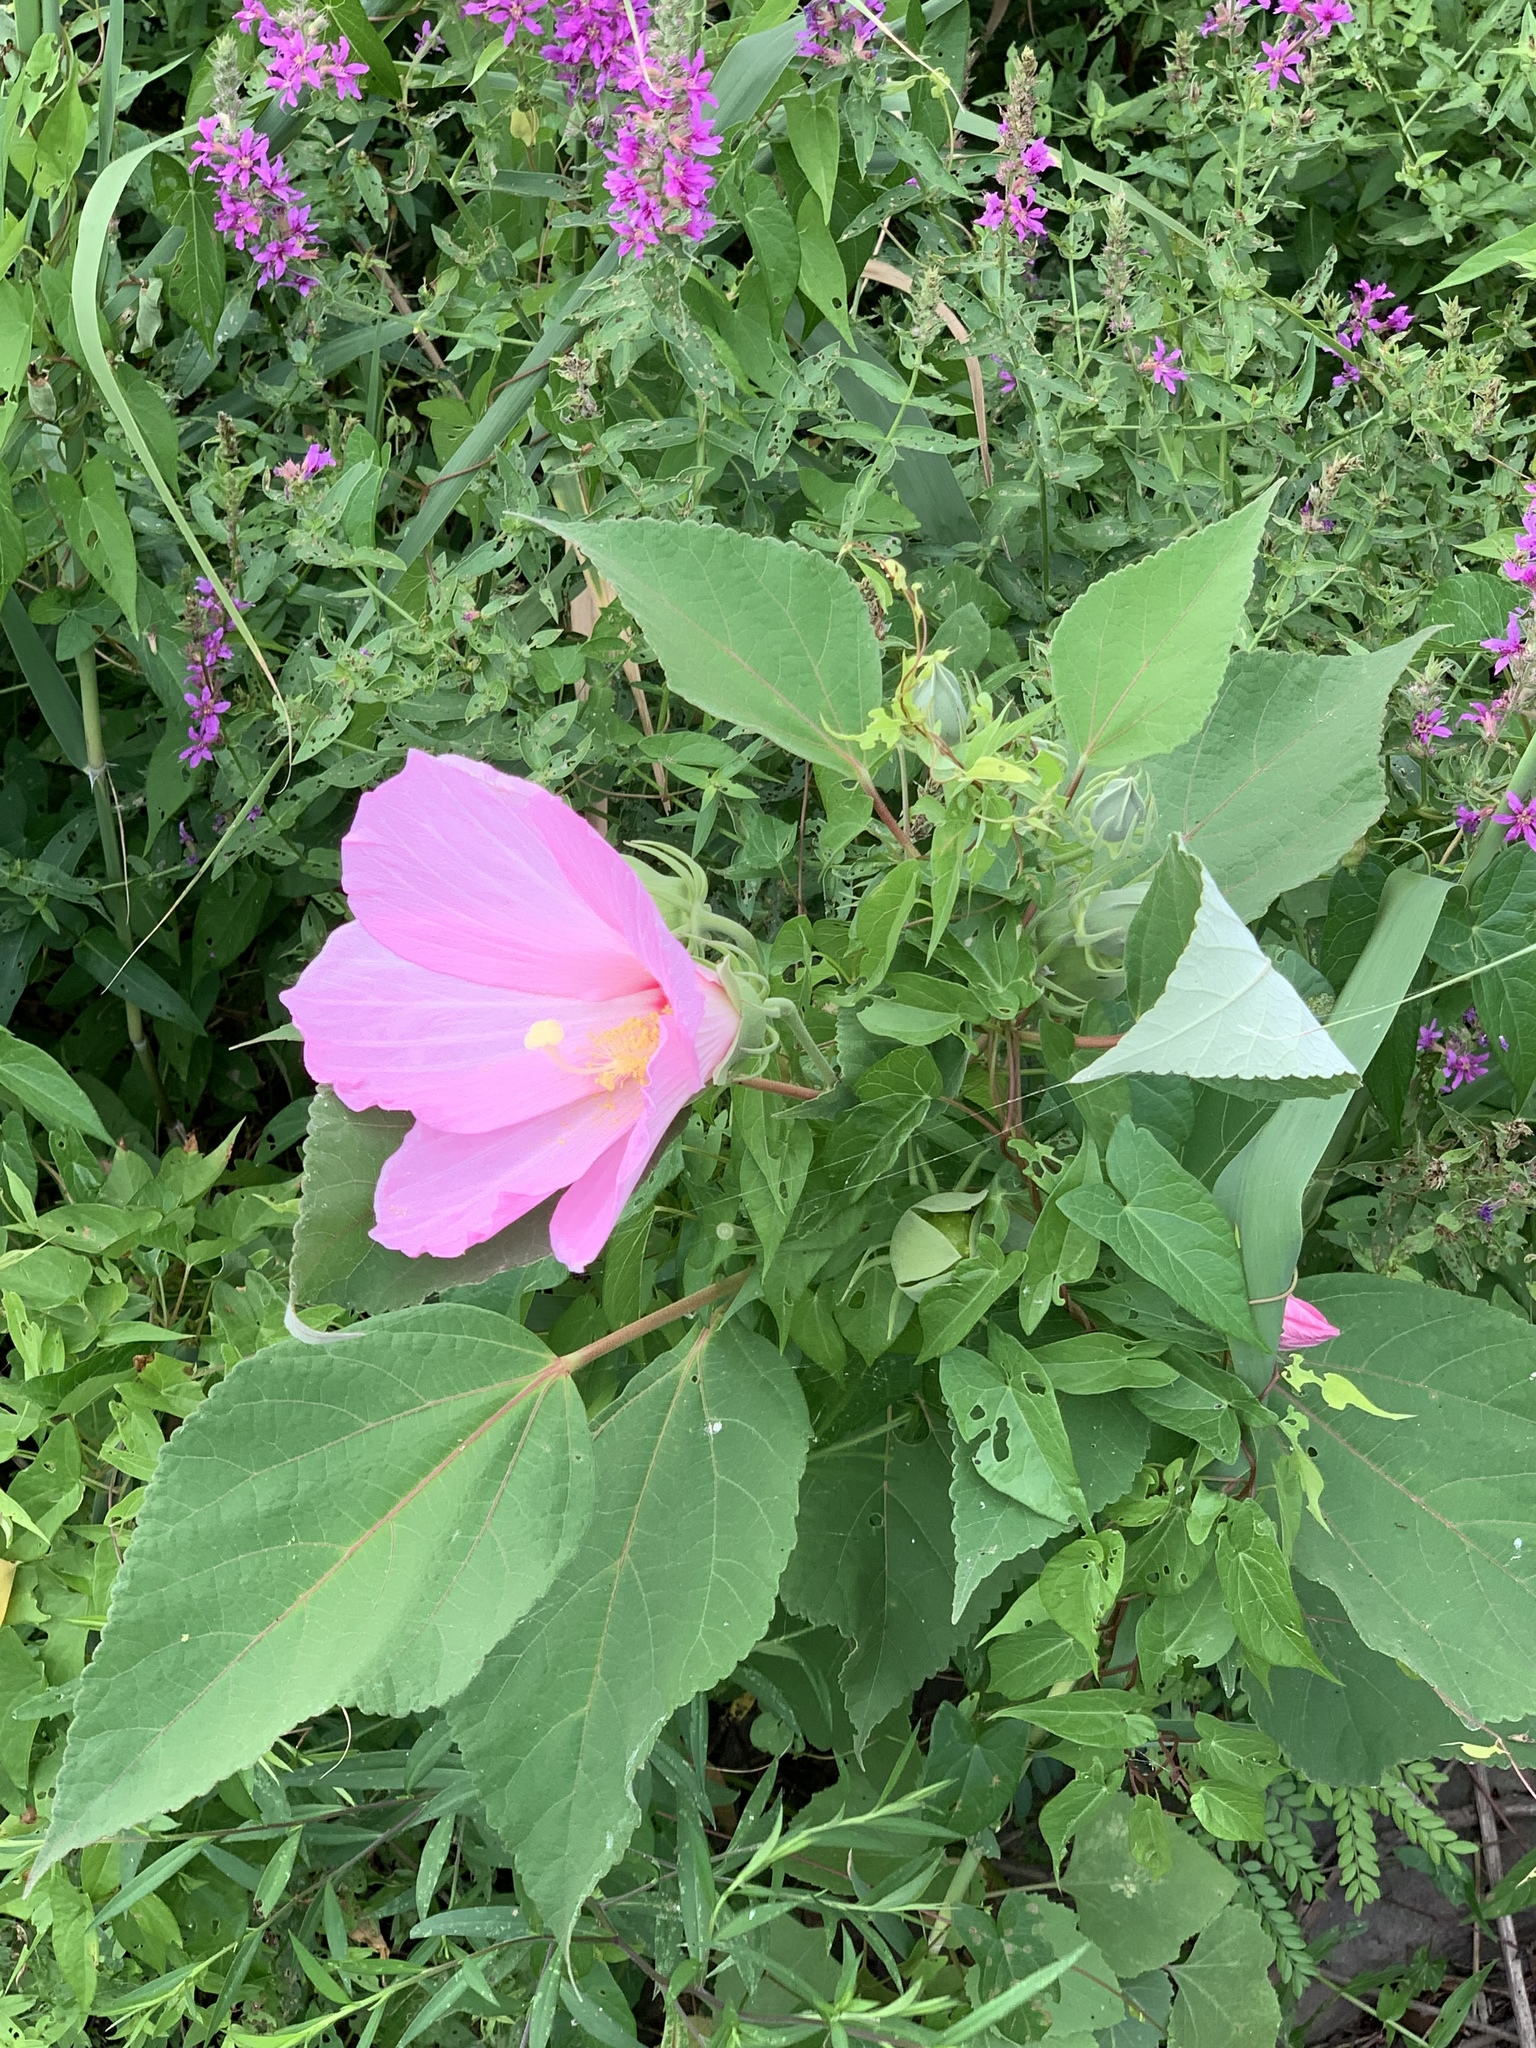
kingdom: Plantae
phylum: Tracheophyta
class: Magnoliopsida
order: Malvales
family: Malvaceae
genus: Hibiscus
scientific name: Hibiscus moscheutos
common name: Common rose-mallow
